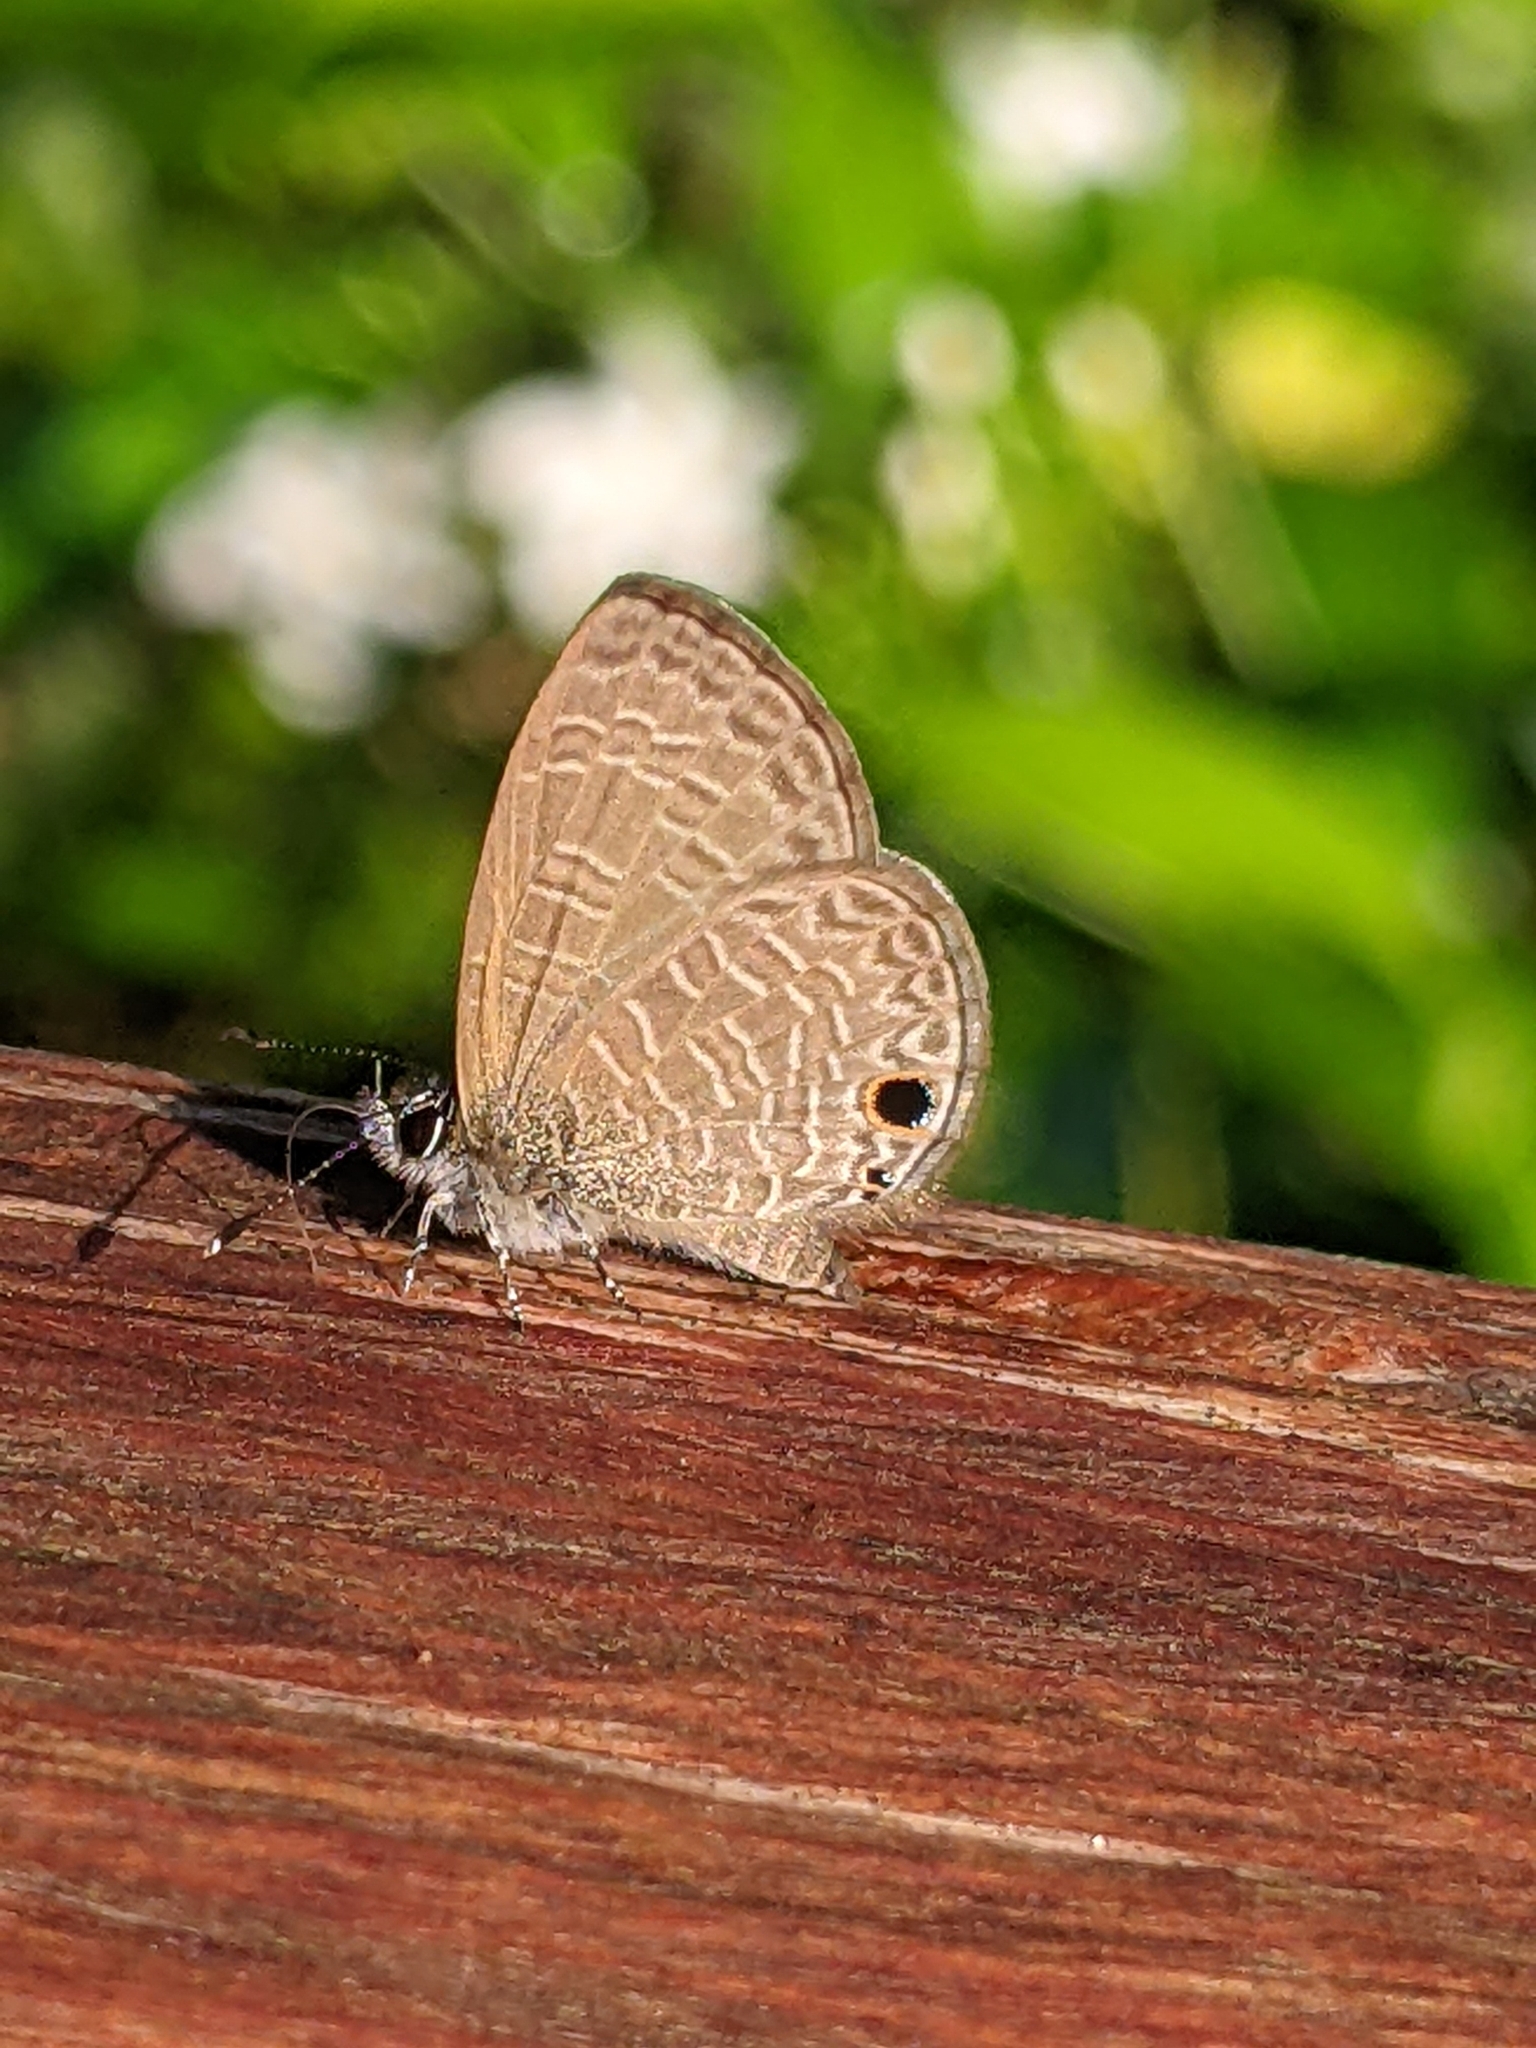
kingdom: Animalia
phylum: Arthropoda
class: Insecta
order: Lepidoptera
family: Lycaenidae
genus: Prosotas
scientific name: Prosotas dubiosa
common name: Tailless lineblue
